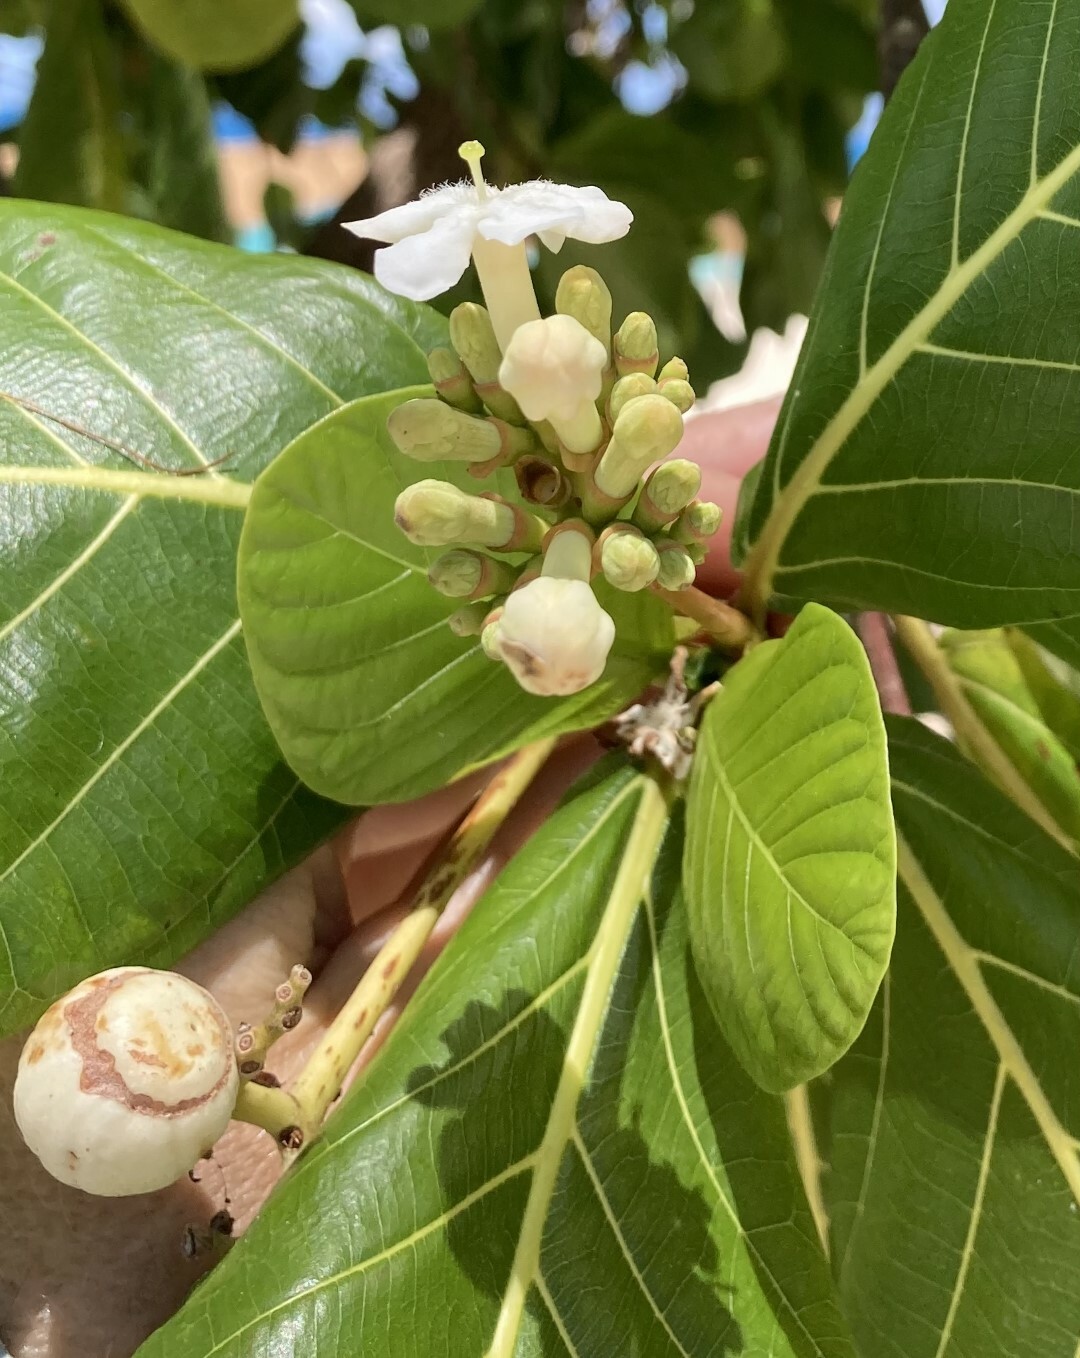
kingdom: Plantae
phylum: Tracheophyta
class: Magnoliopsida
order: Gentianales
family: Rubiaceae
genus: Guettarda
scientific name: Guettarda speciosa
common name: Sea randa
